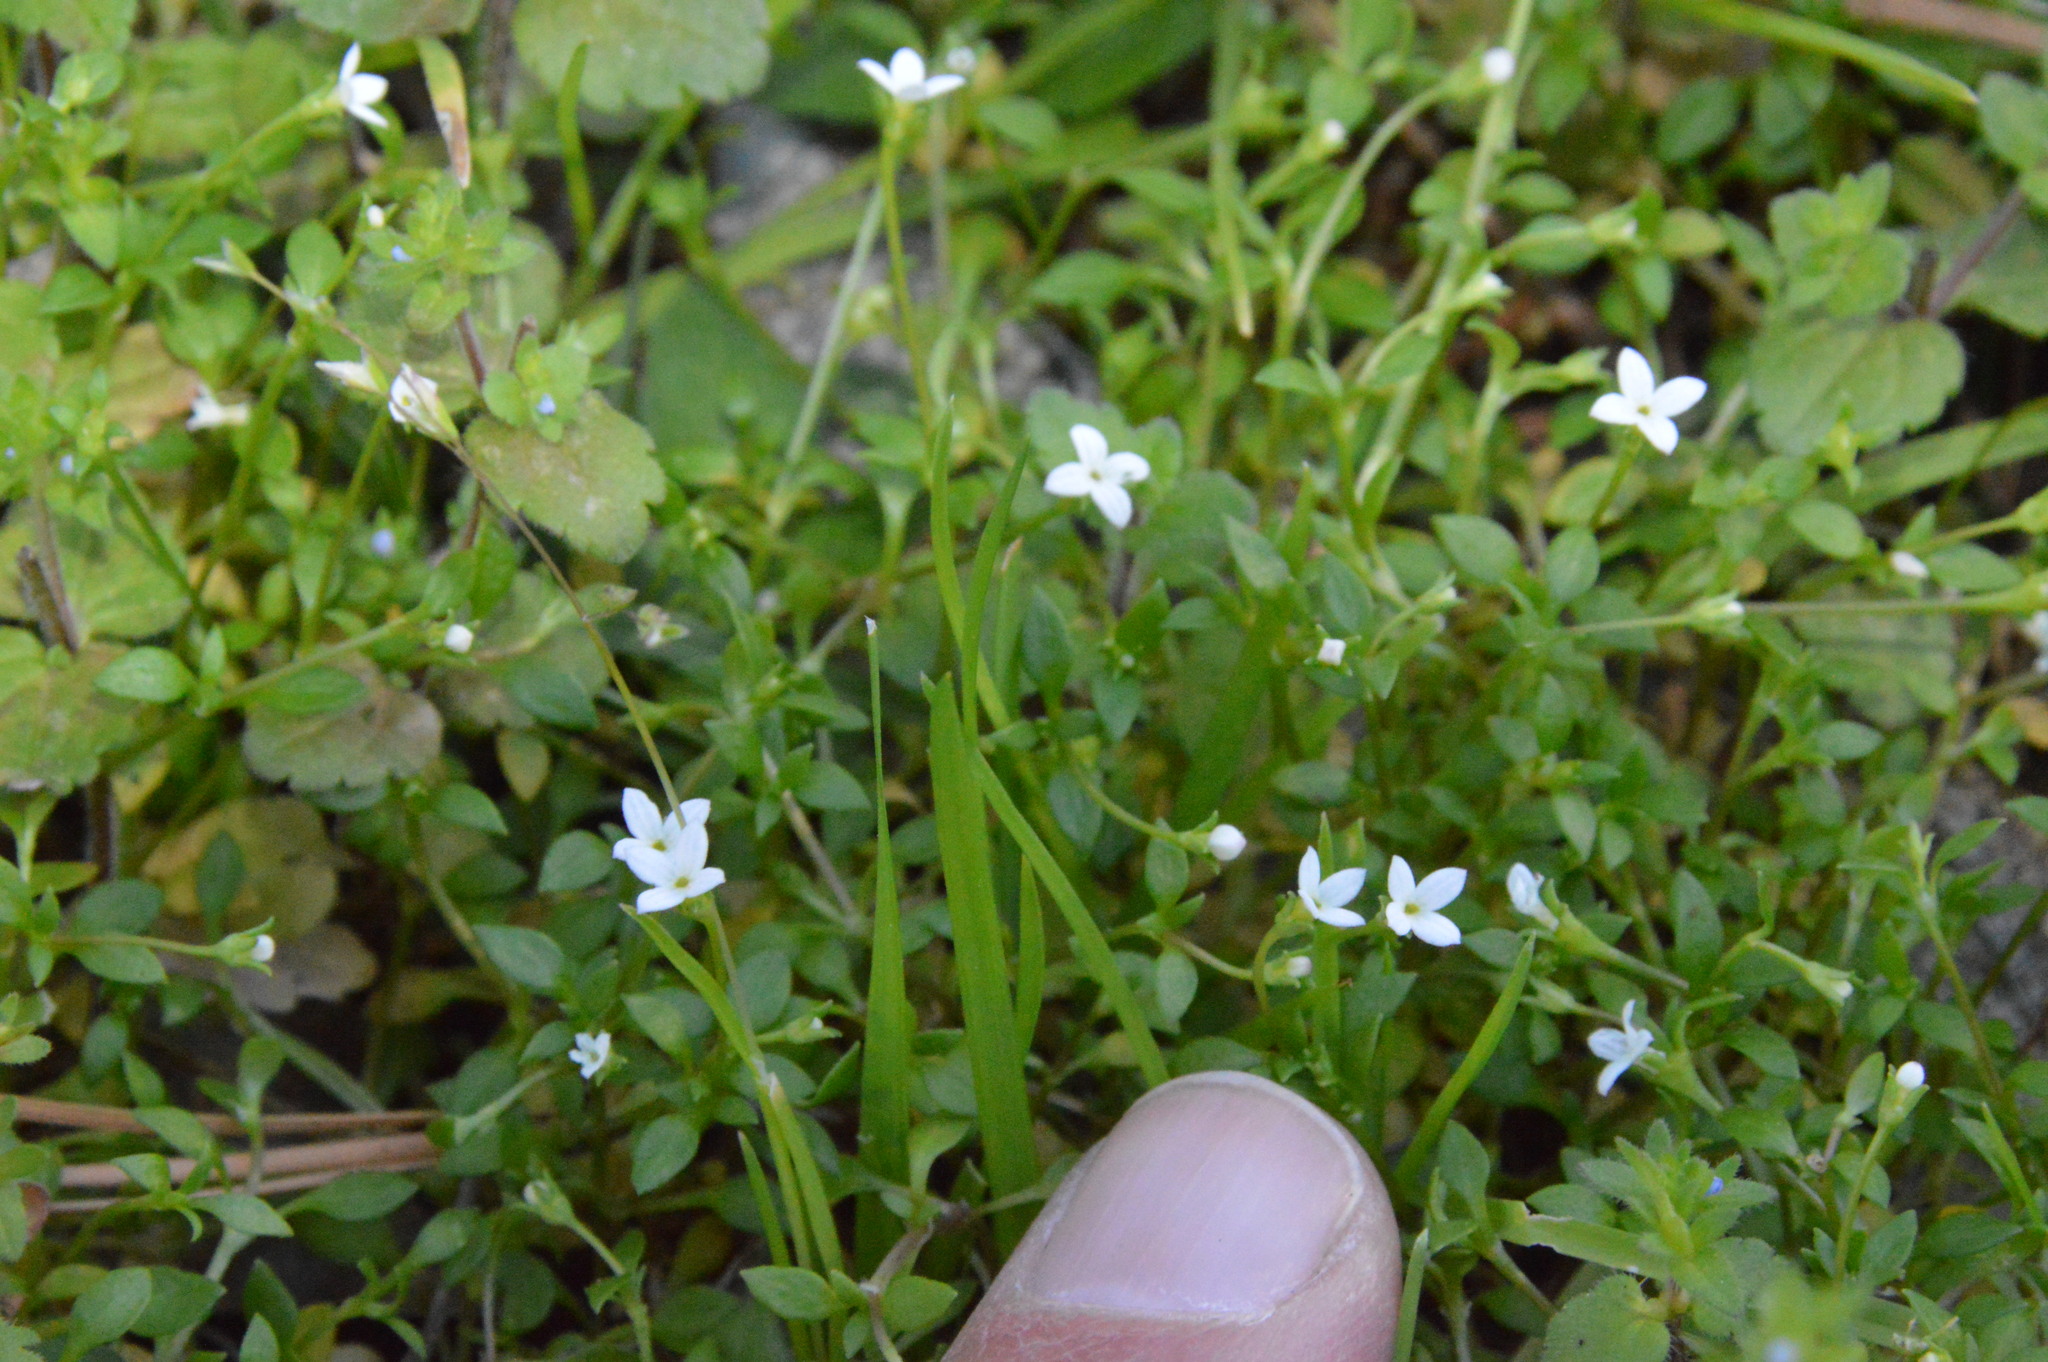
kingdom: Plantae
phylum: Tracheophyta
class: Magnoliopsida
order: Gentianales
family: Rubiaceae
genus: Houstonia
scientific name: Houstonia micrantha
